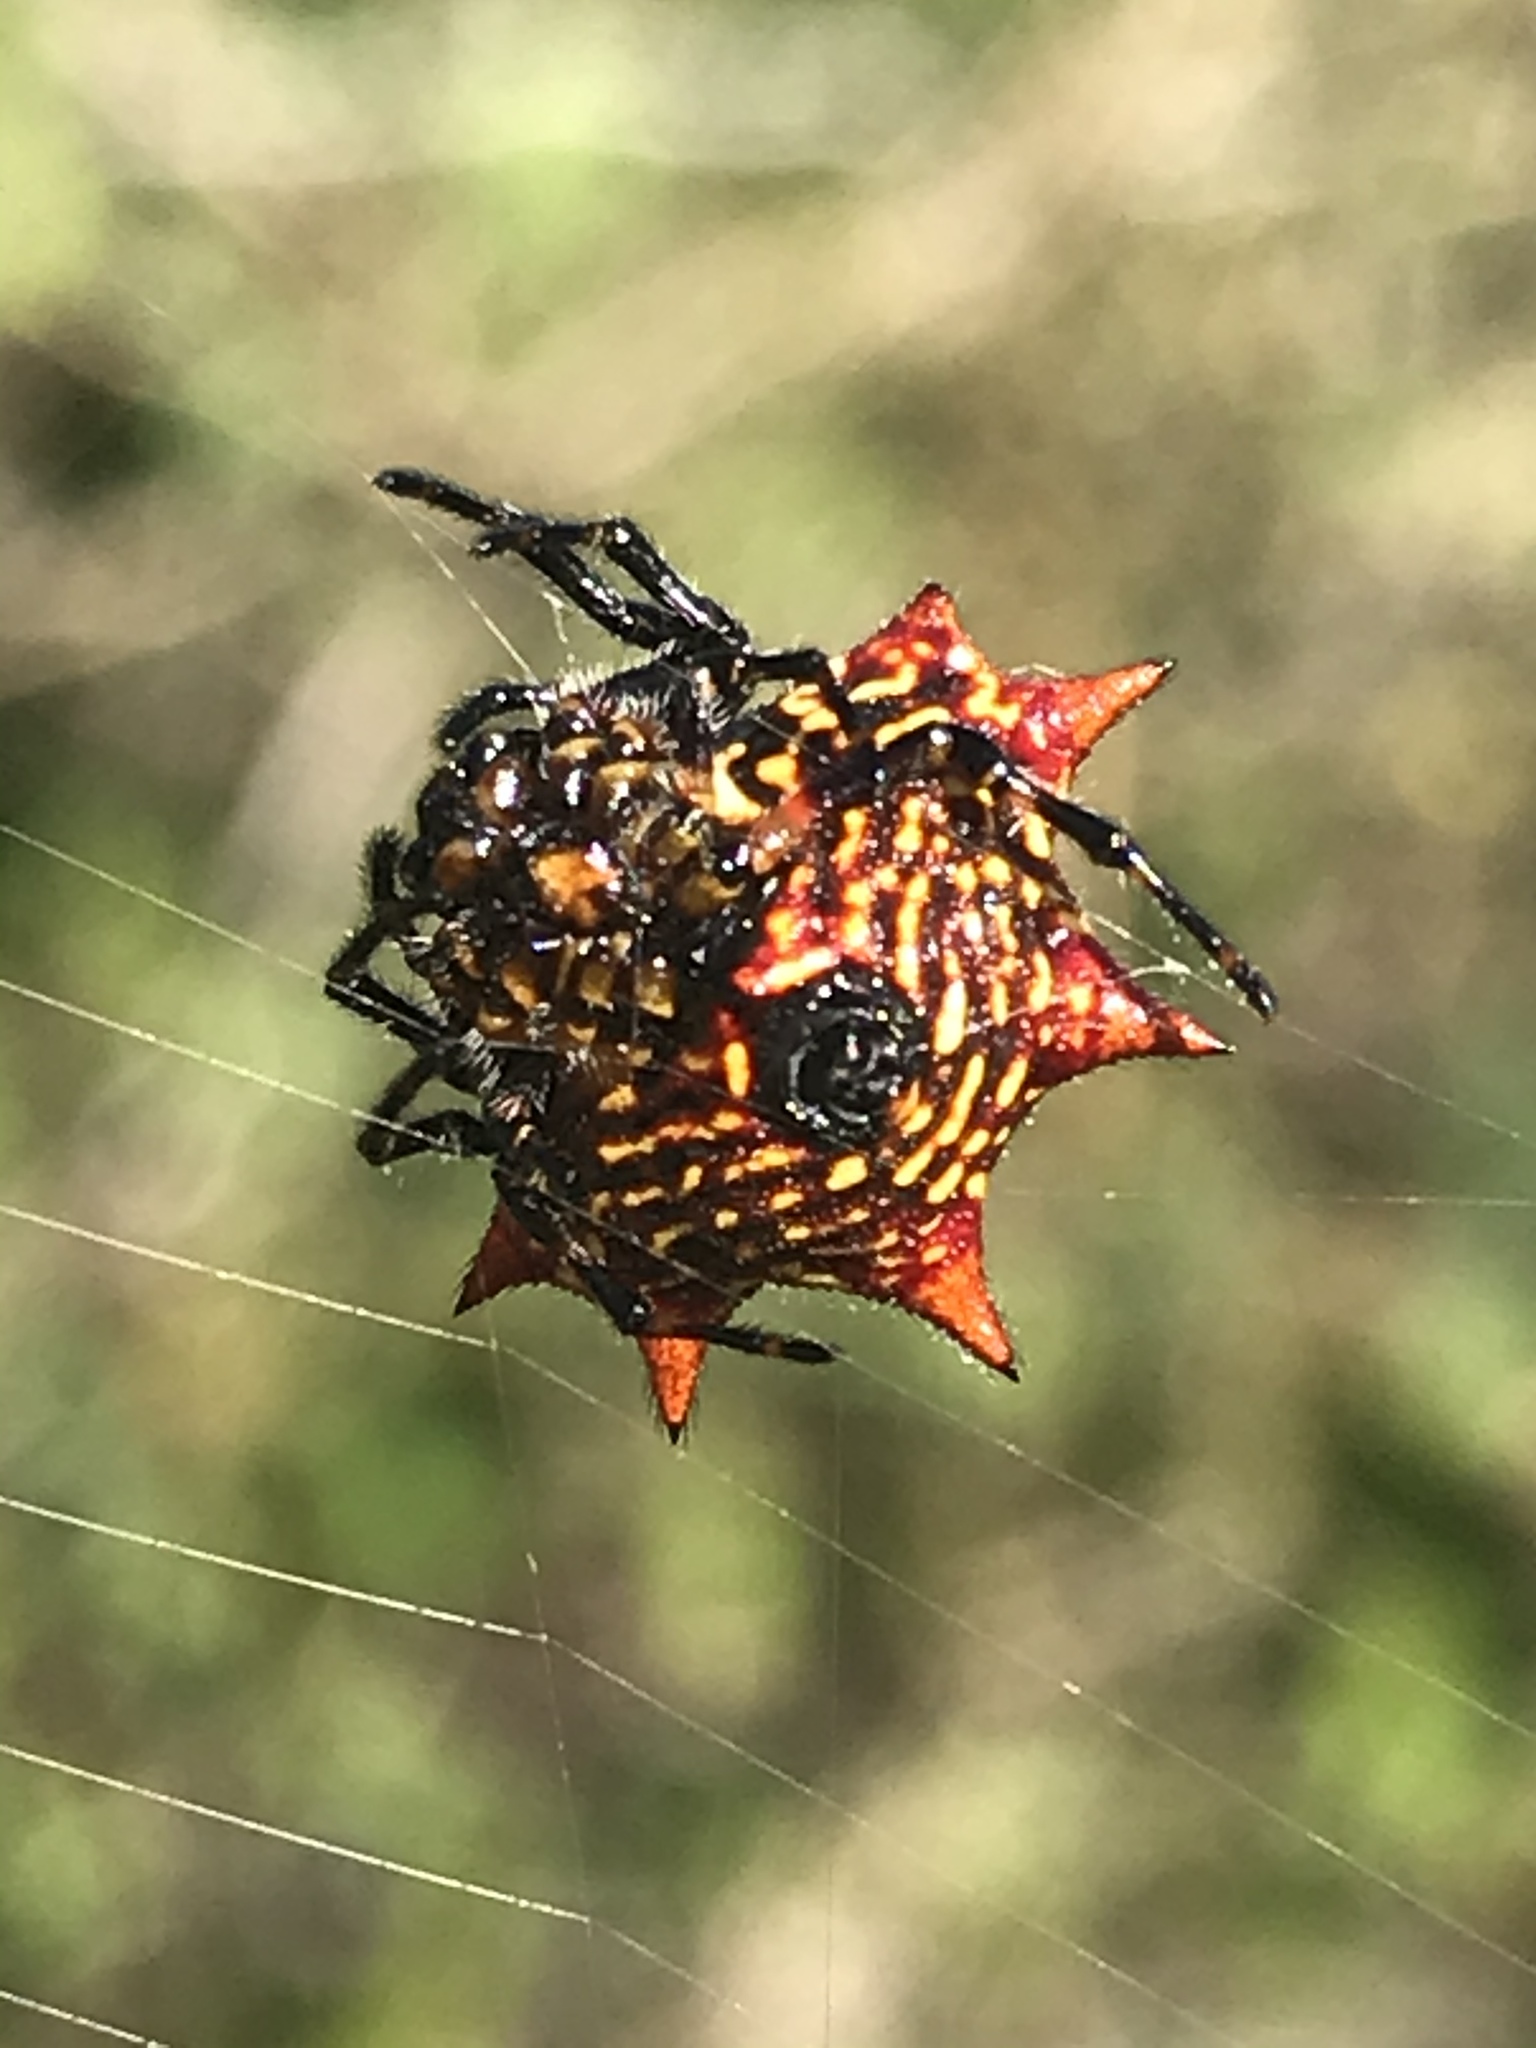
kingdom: Animalia
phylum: Arthropoda
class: Arachnida
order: Araneae
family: Araneidae
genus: Gasteracantha
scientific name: Gasteracantha cancriformis
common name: Orb weavers
